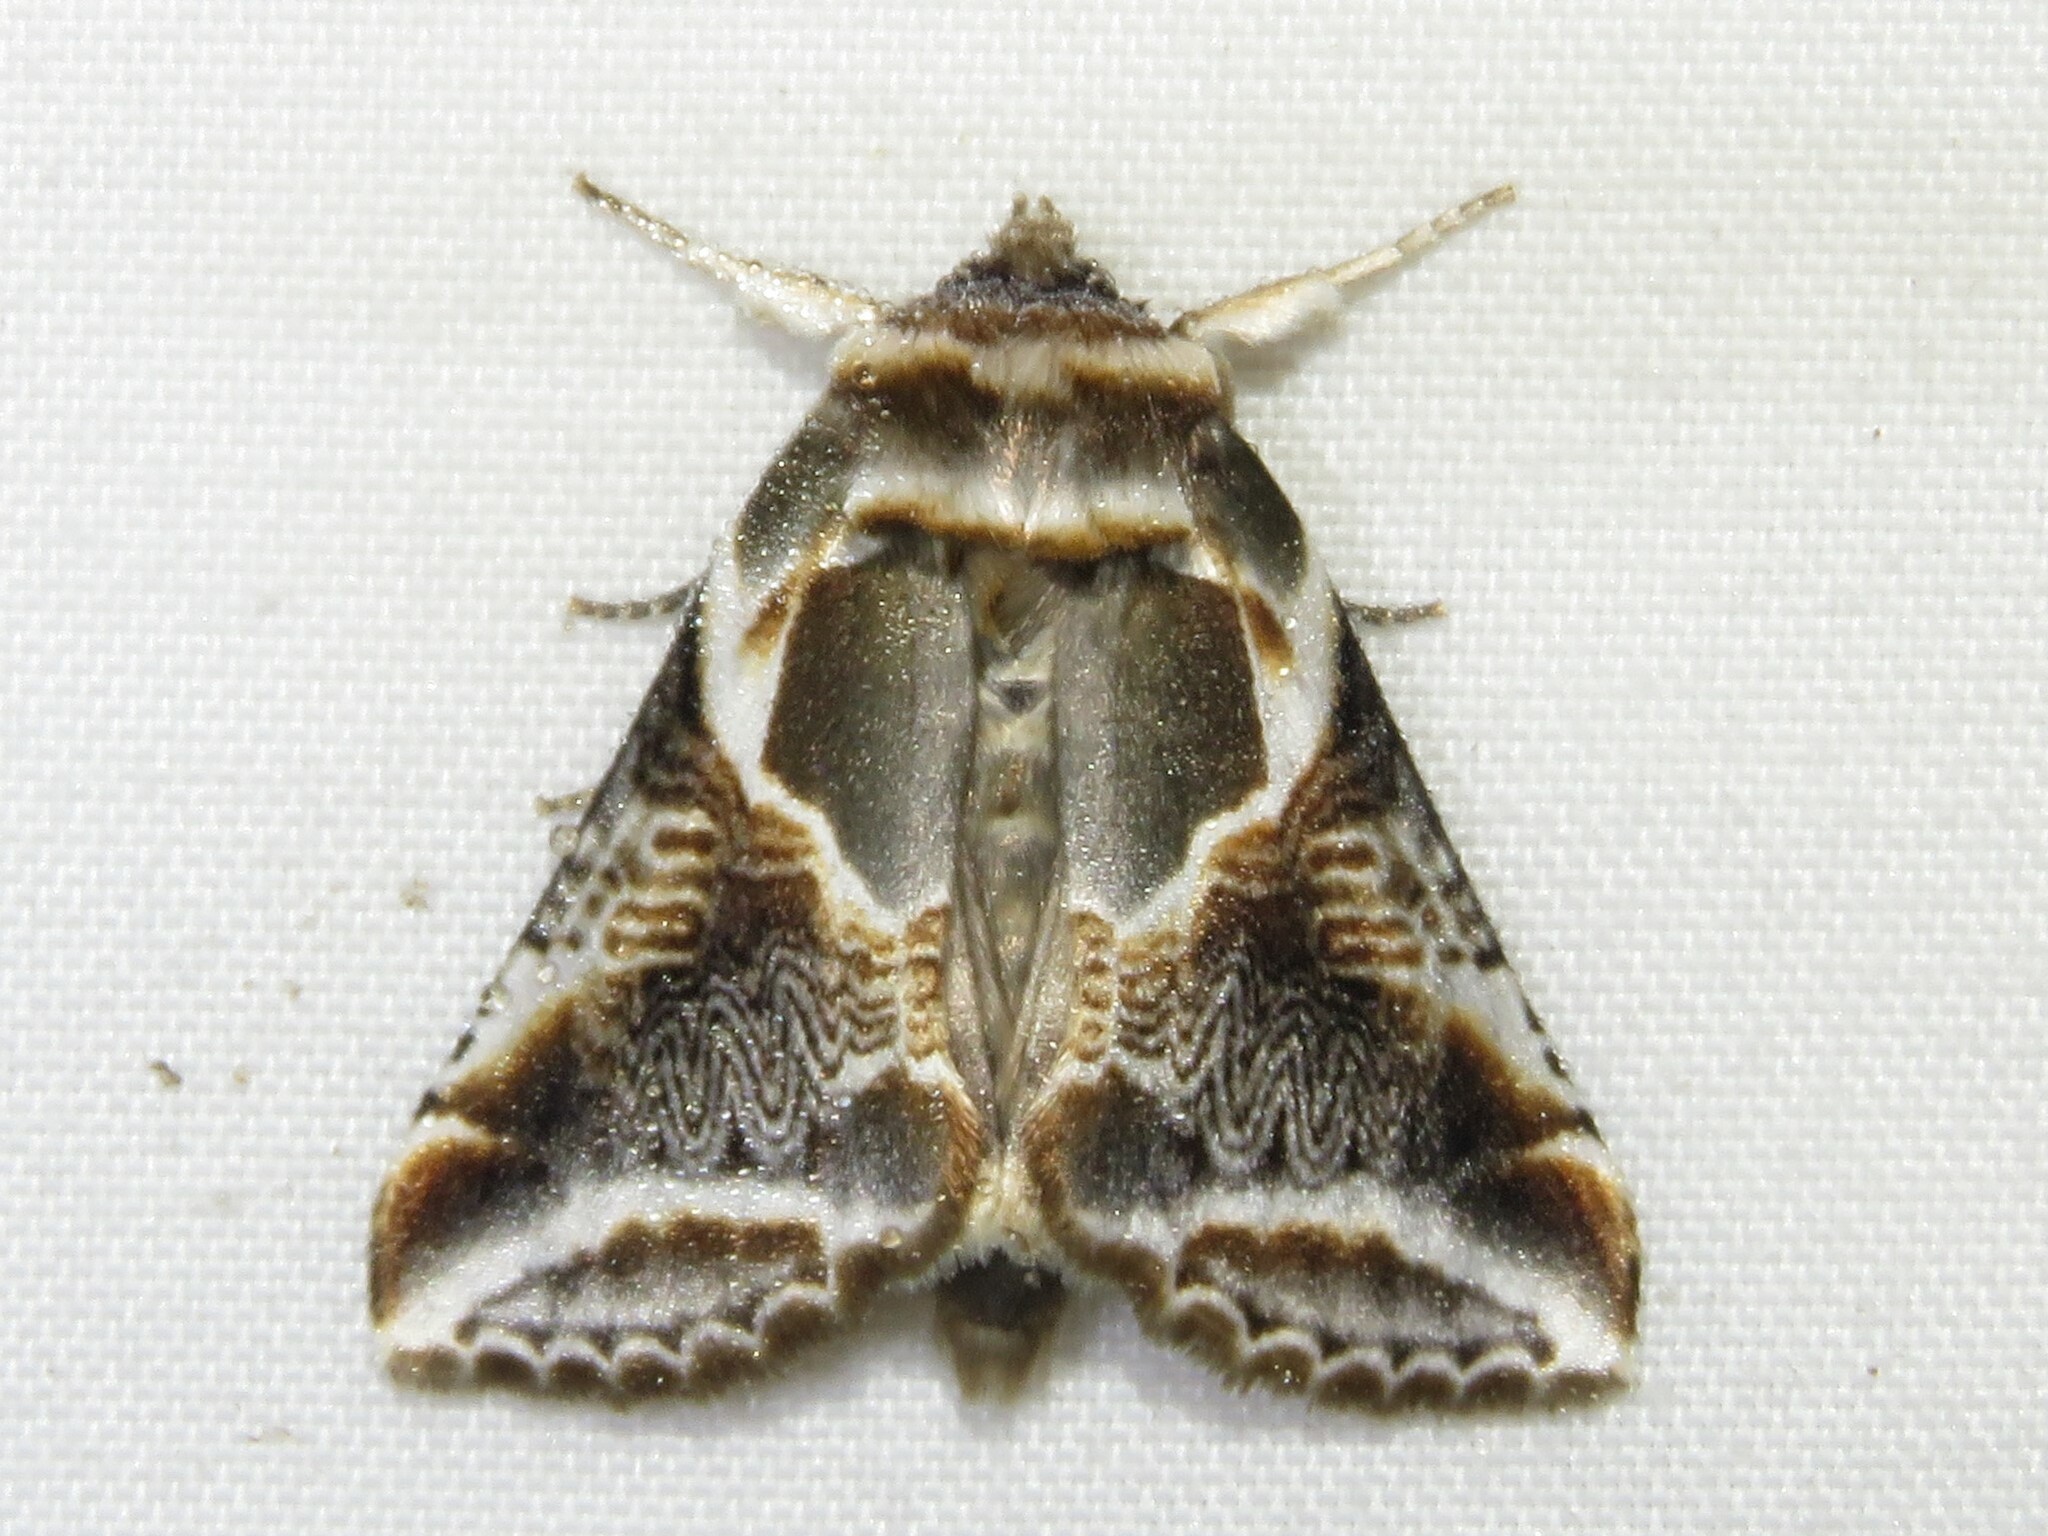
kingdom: Animalia
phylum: Arthropoda
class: Insecta
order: Lepidoptera
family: Drepanidae
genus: Habrosyne
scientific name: Habrosyne scripta
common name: Lettered habrosyne moth
